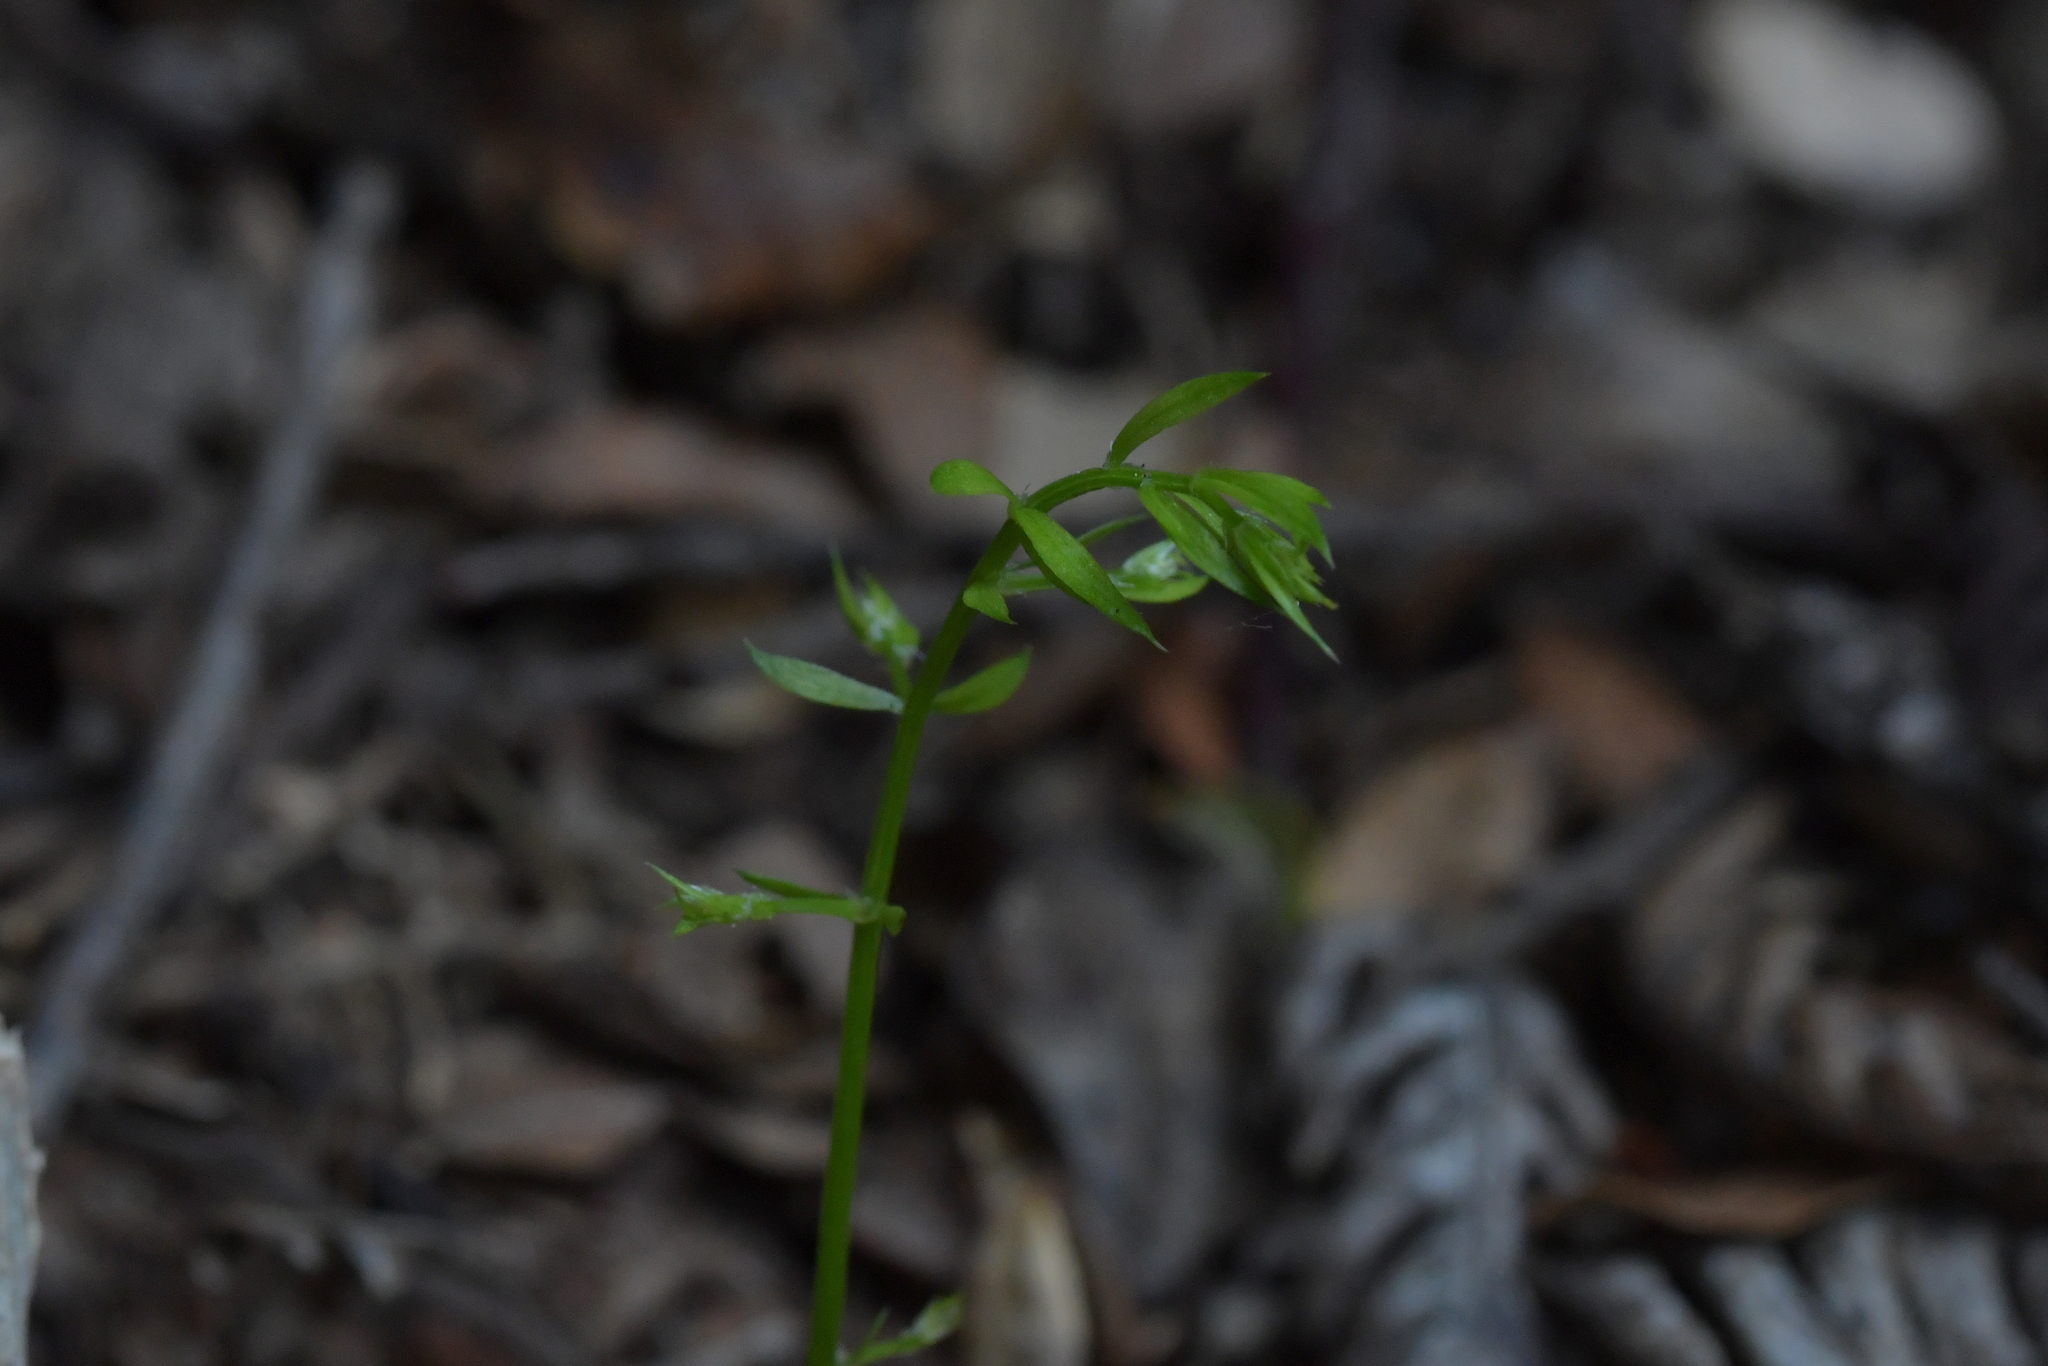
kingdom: Plantae
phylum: Tracheophyta
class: Liliopsida
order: Asparagales
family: Asparagaceae
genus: Asparagus
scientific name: Asparagus scandens
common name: Asparagus-fern
